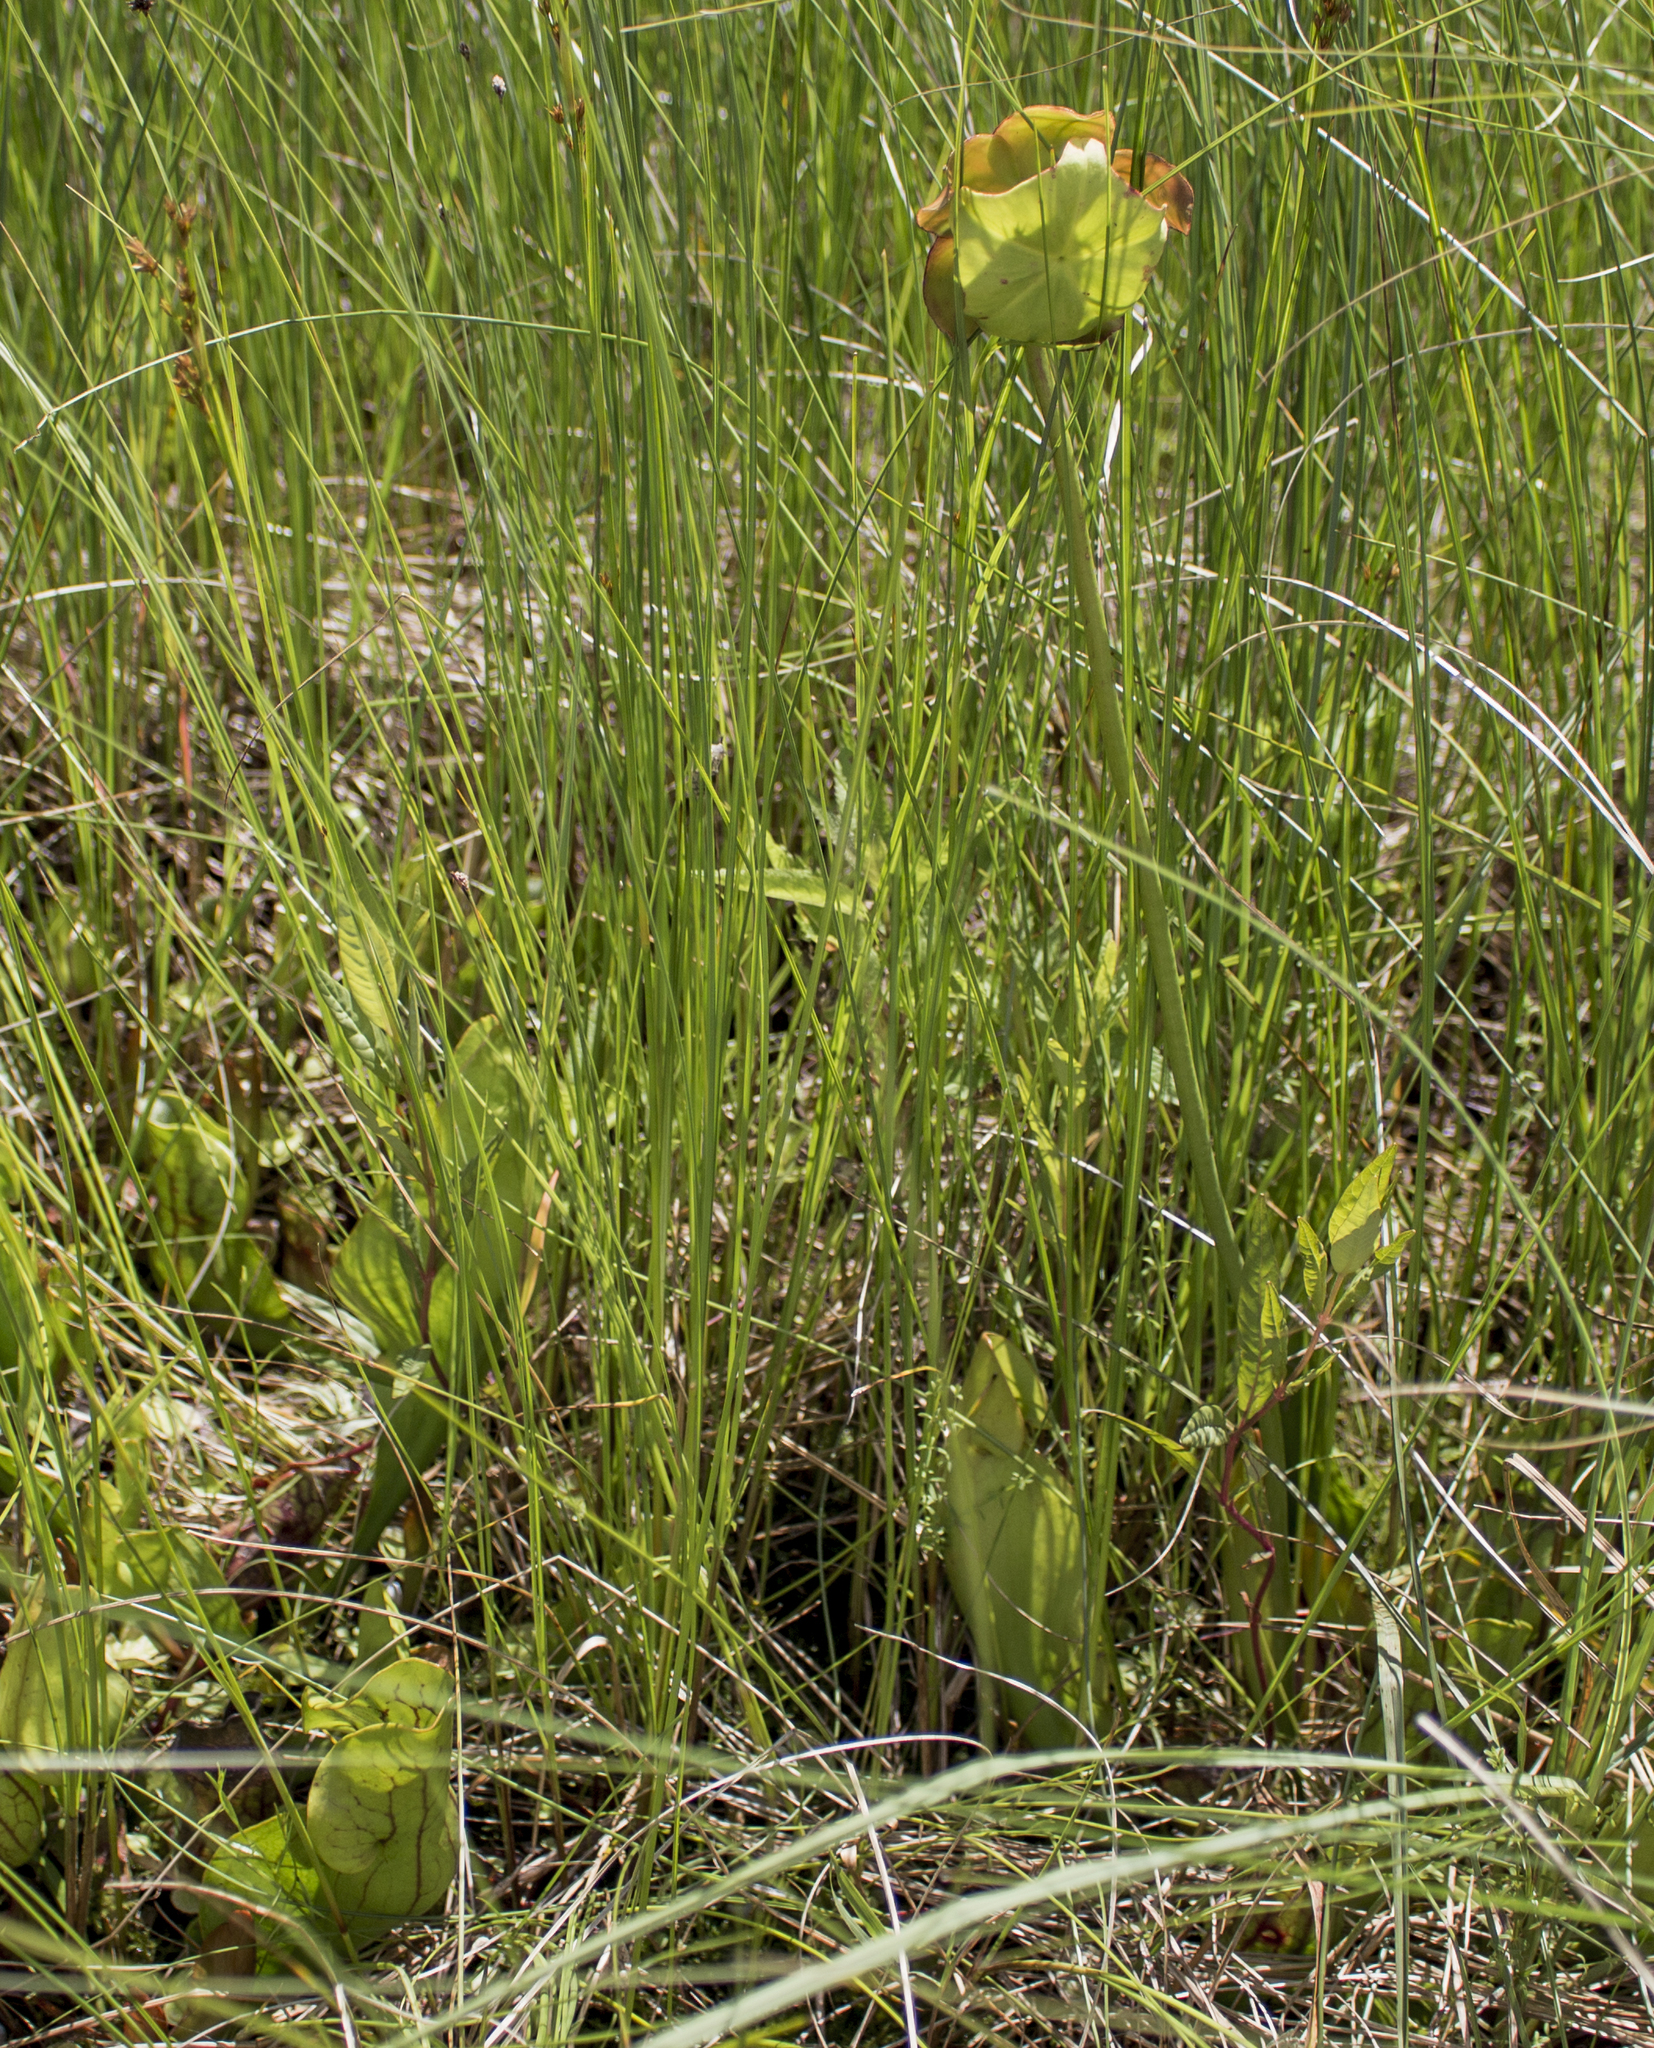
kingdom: Plantae
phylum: Tracheophyta
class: Magnoliopsida
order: Ericales
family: Sarraceniaceae
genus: Sarracenia
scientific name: Sarracenia purpurea
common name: Pitcherplant
